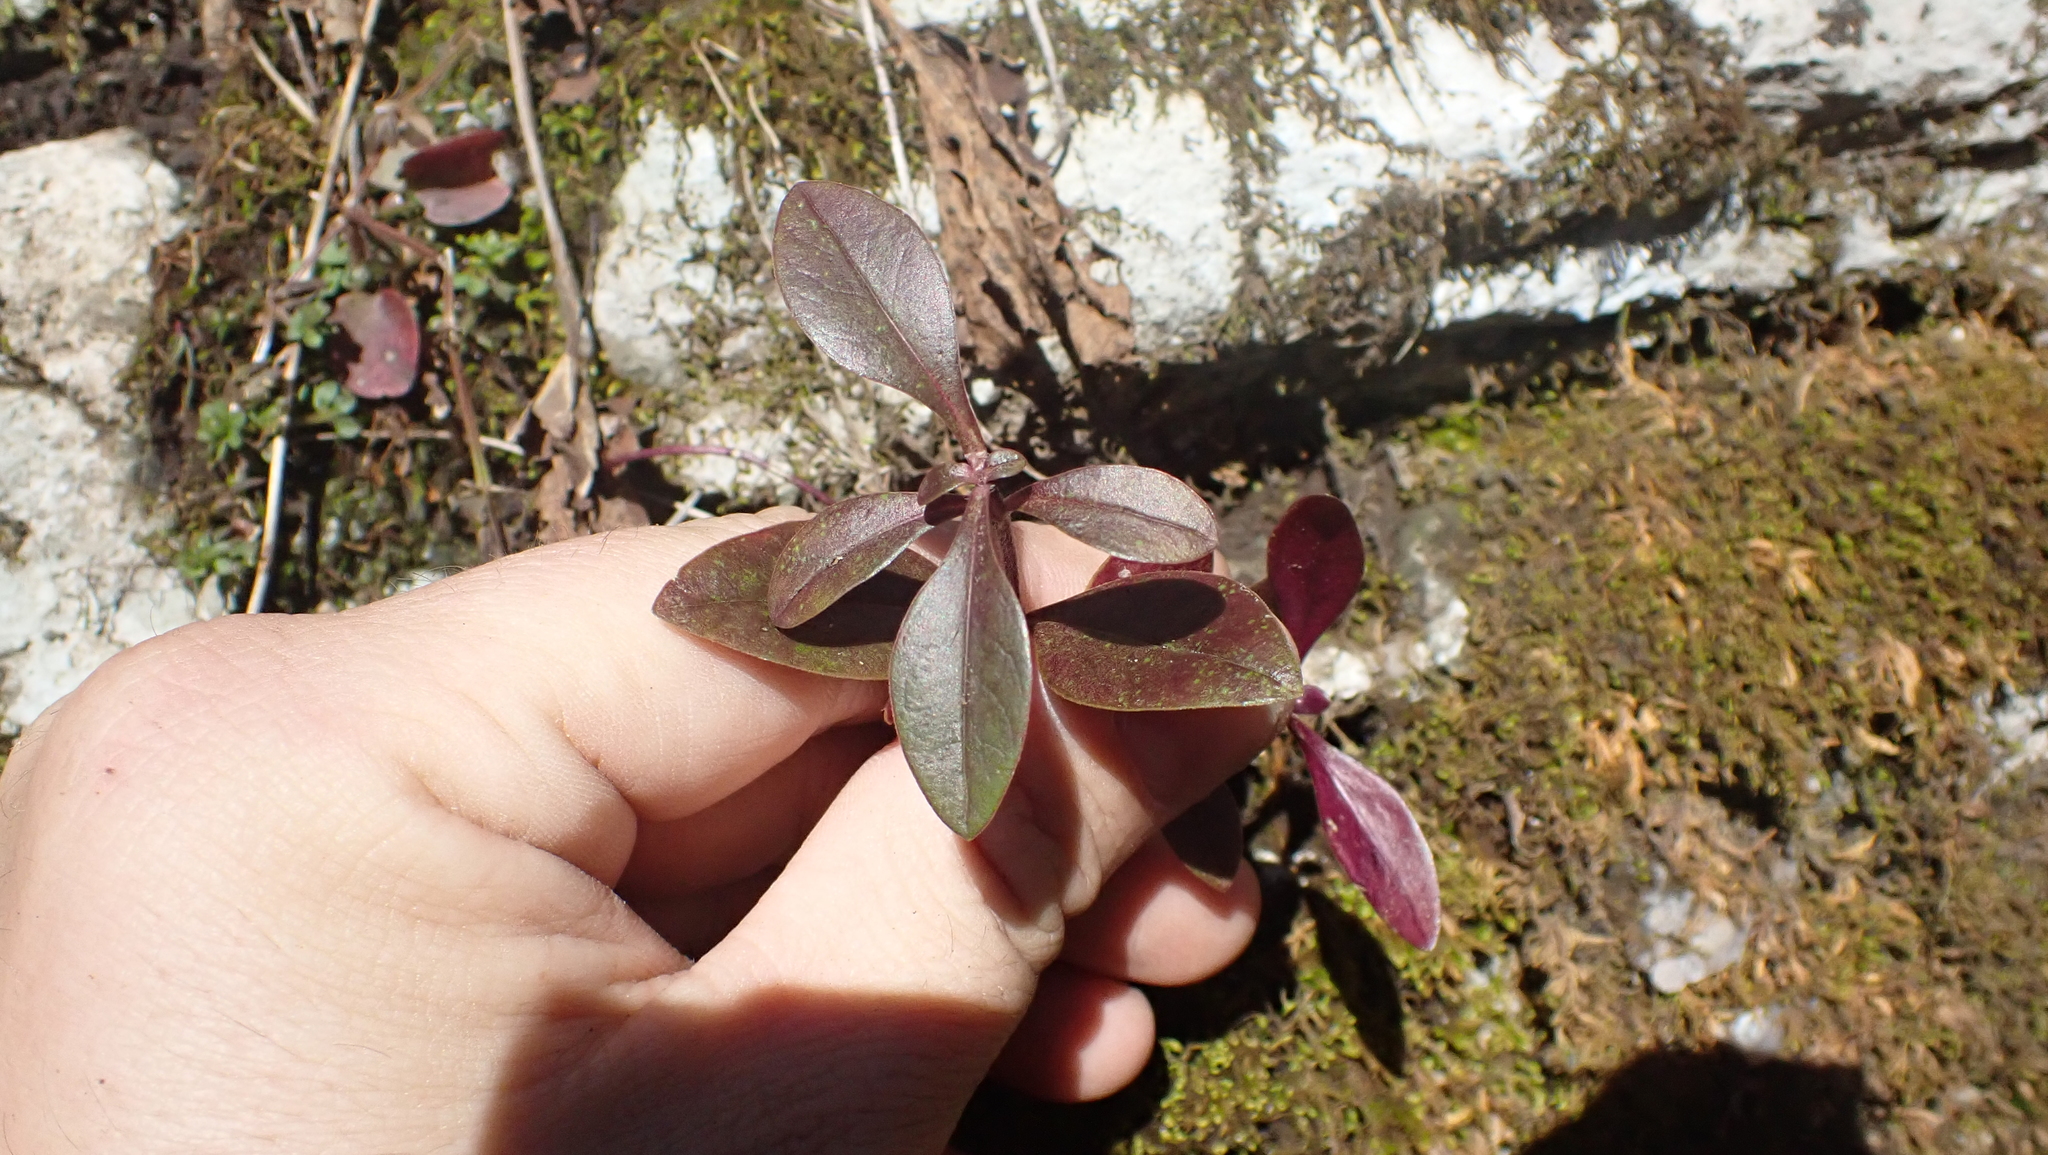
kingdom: Plantae
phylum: Tracheophyta
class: Magnoliopsida
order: Ericales
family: Polemoniaceae
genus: Phlox
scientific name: Phlox divaricata
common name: Blue phlox
